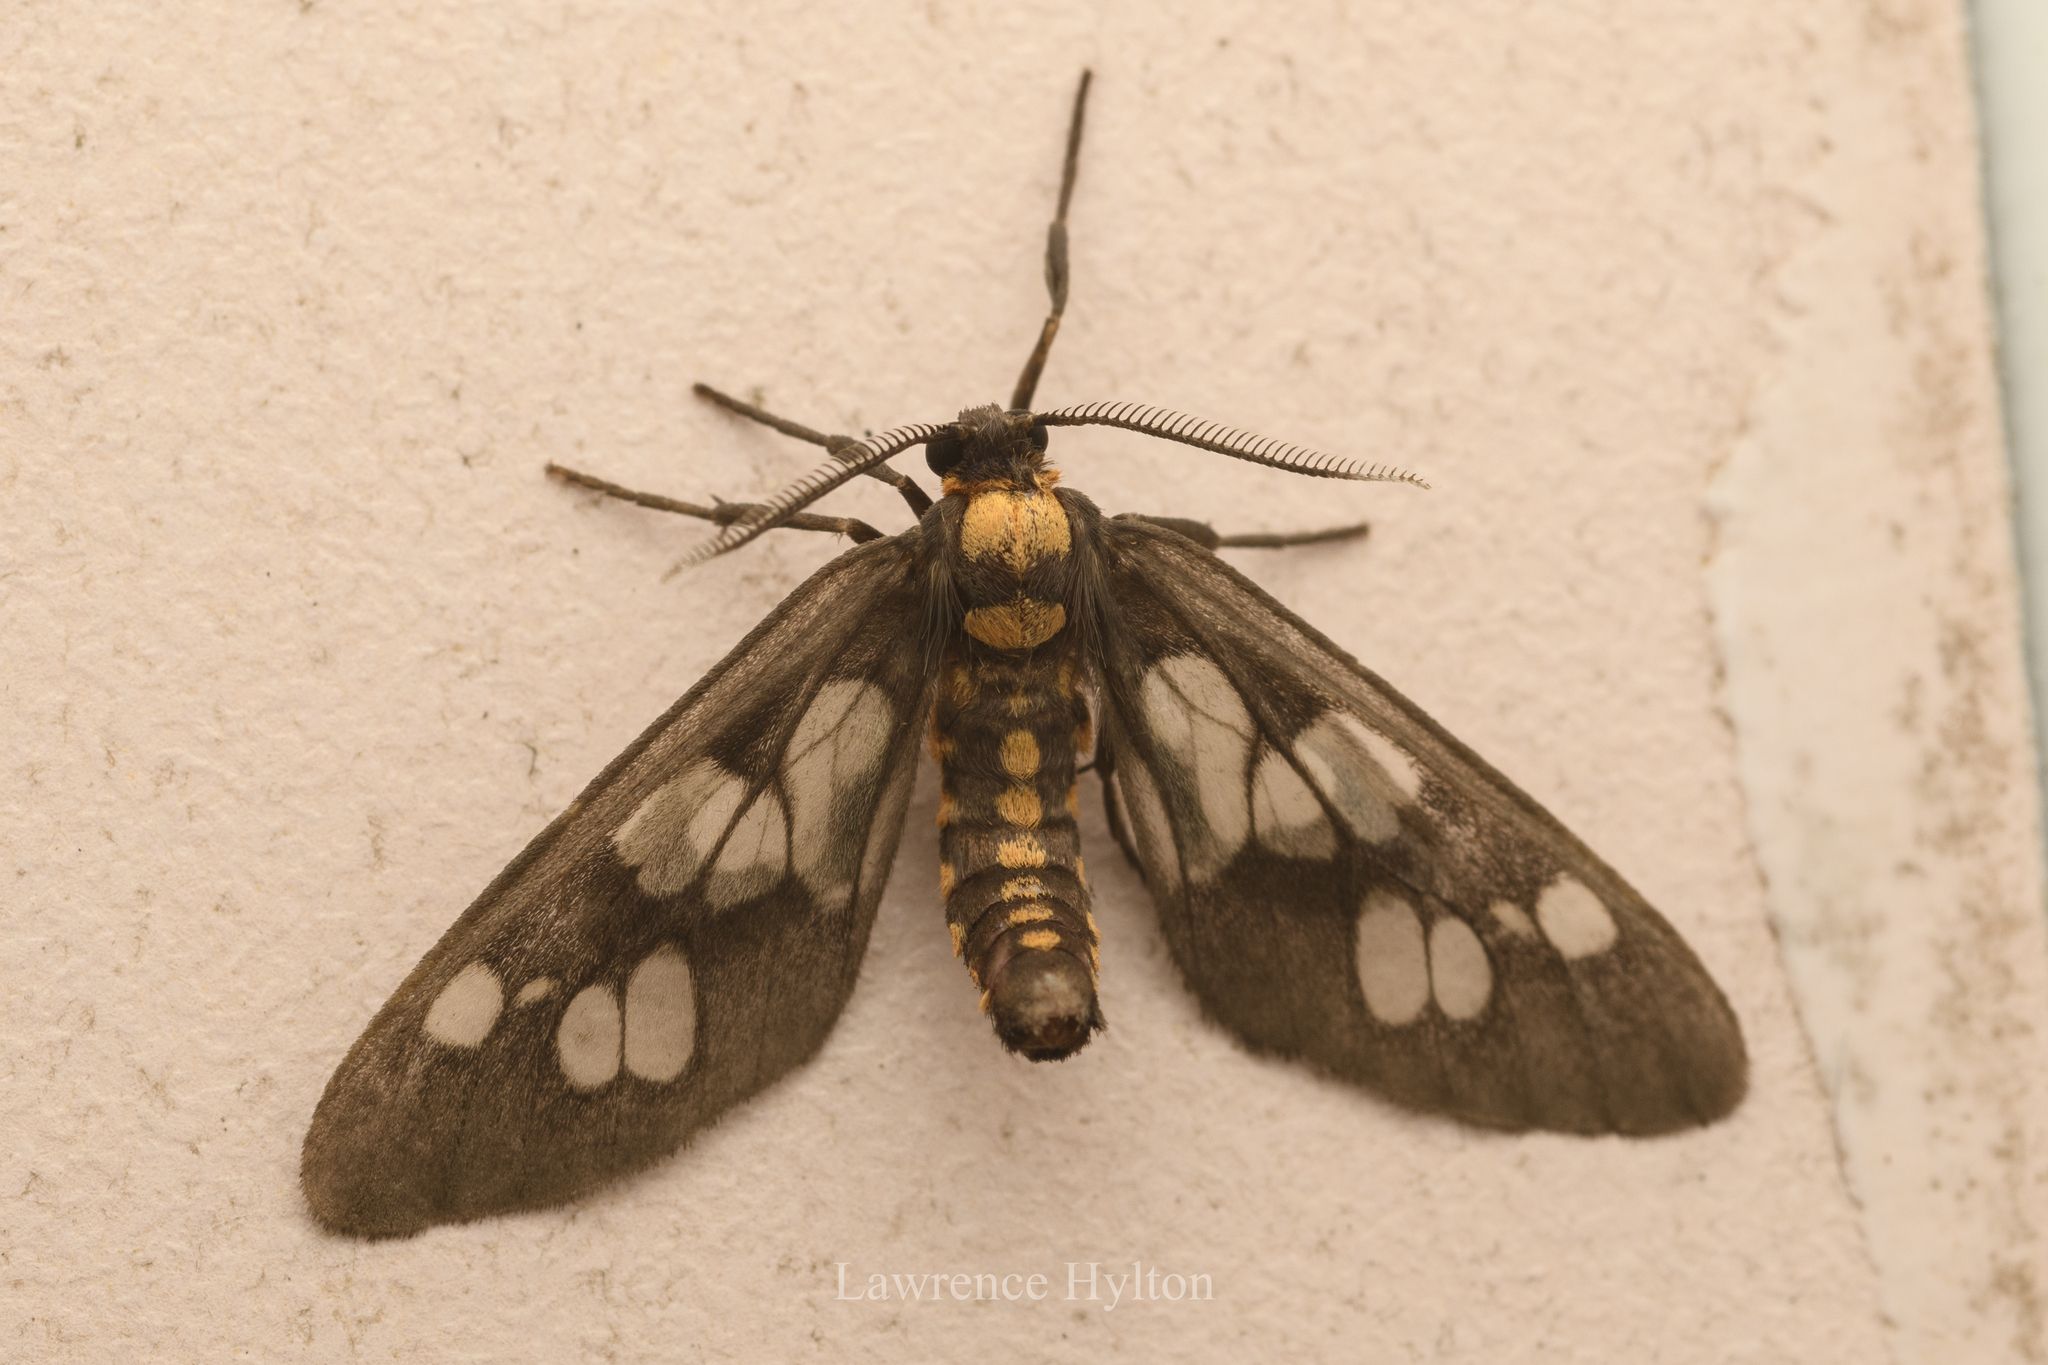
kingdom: Animalia
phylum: Arthropoda
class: Insecta
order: Lepidoptera
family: Erebidae
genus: Eressa
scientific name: Eressa confinis
